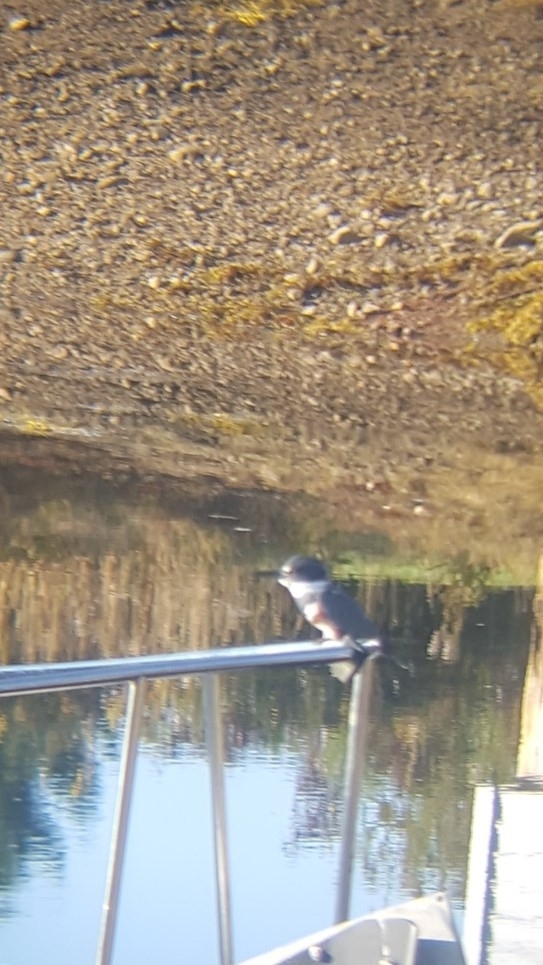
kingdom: Animalia
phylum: Chordata
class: Aves
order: Coraciiformes
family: Alcedinidae
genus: Megaceryle
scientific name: Megaceryle alcyon
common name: Belted kingfisher
